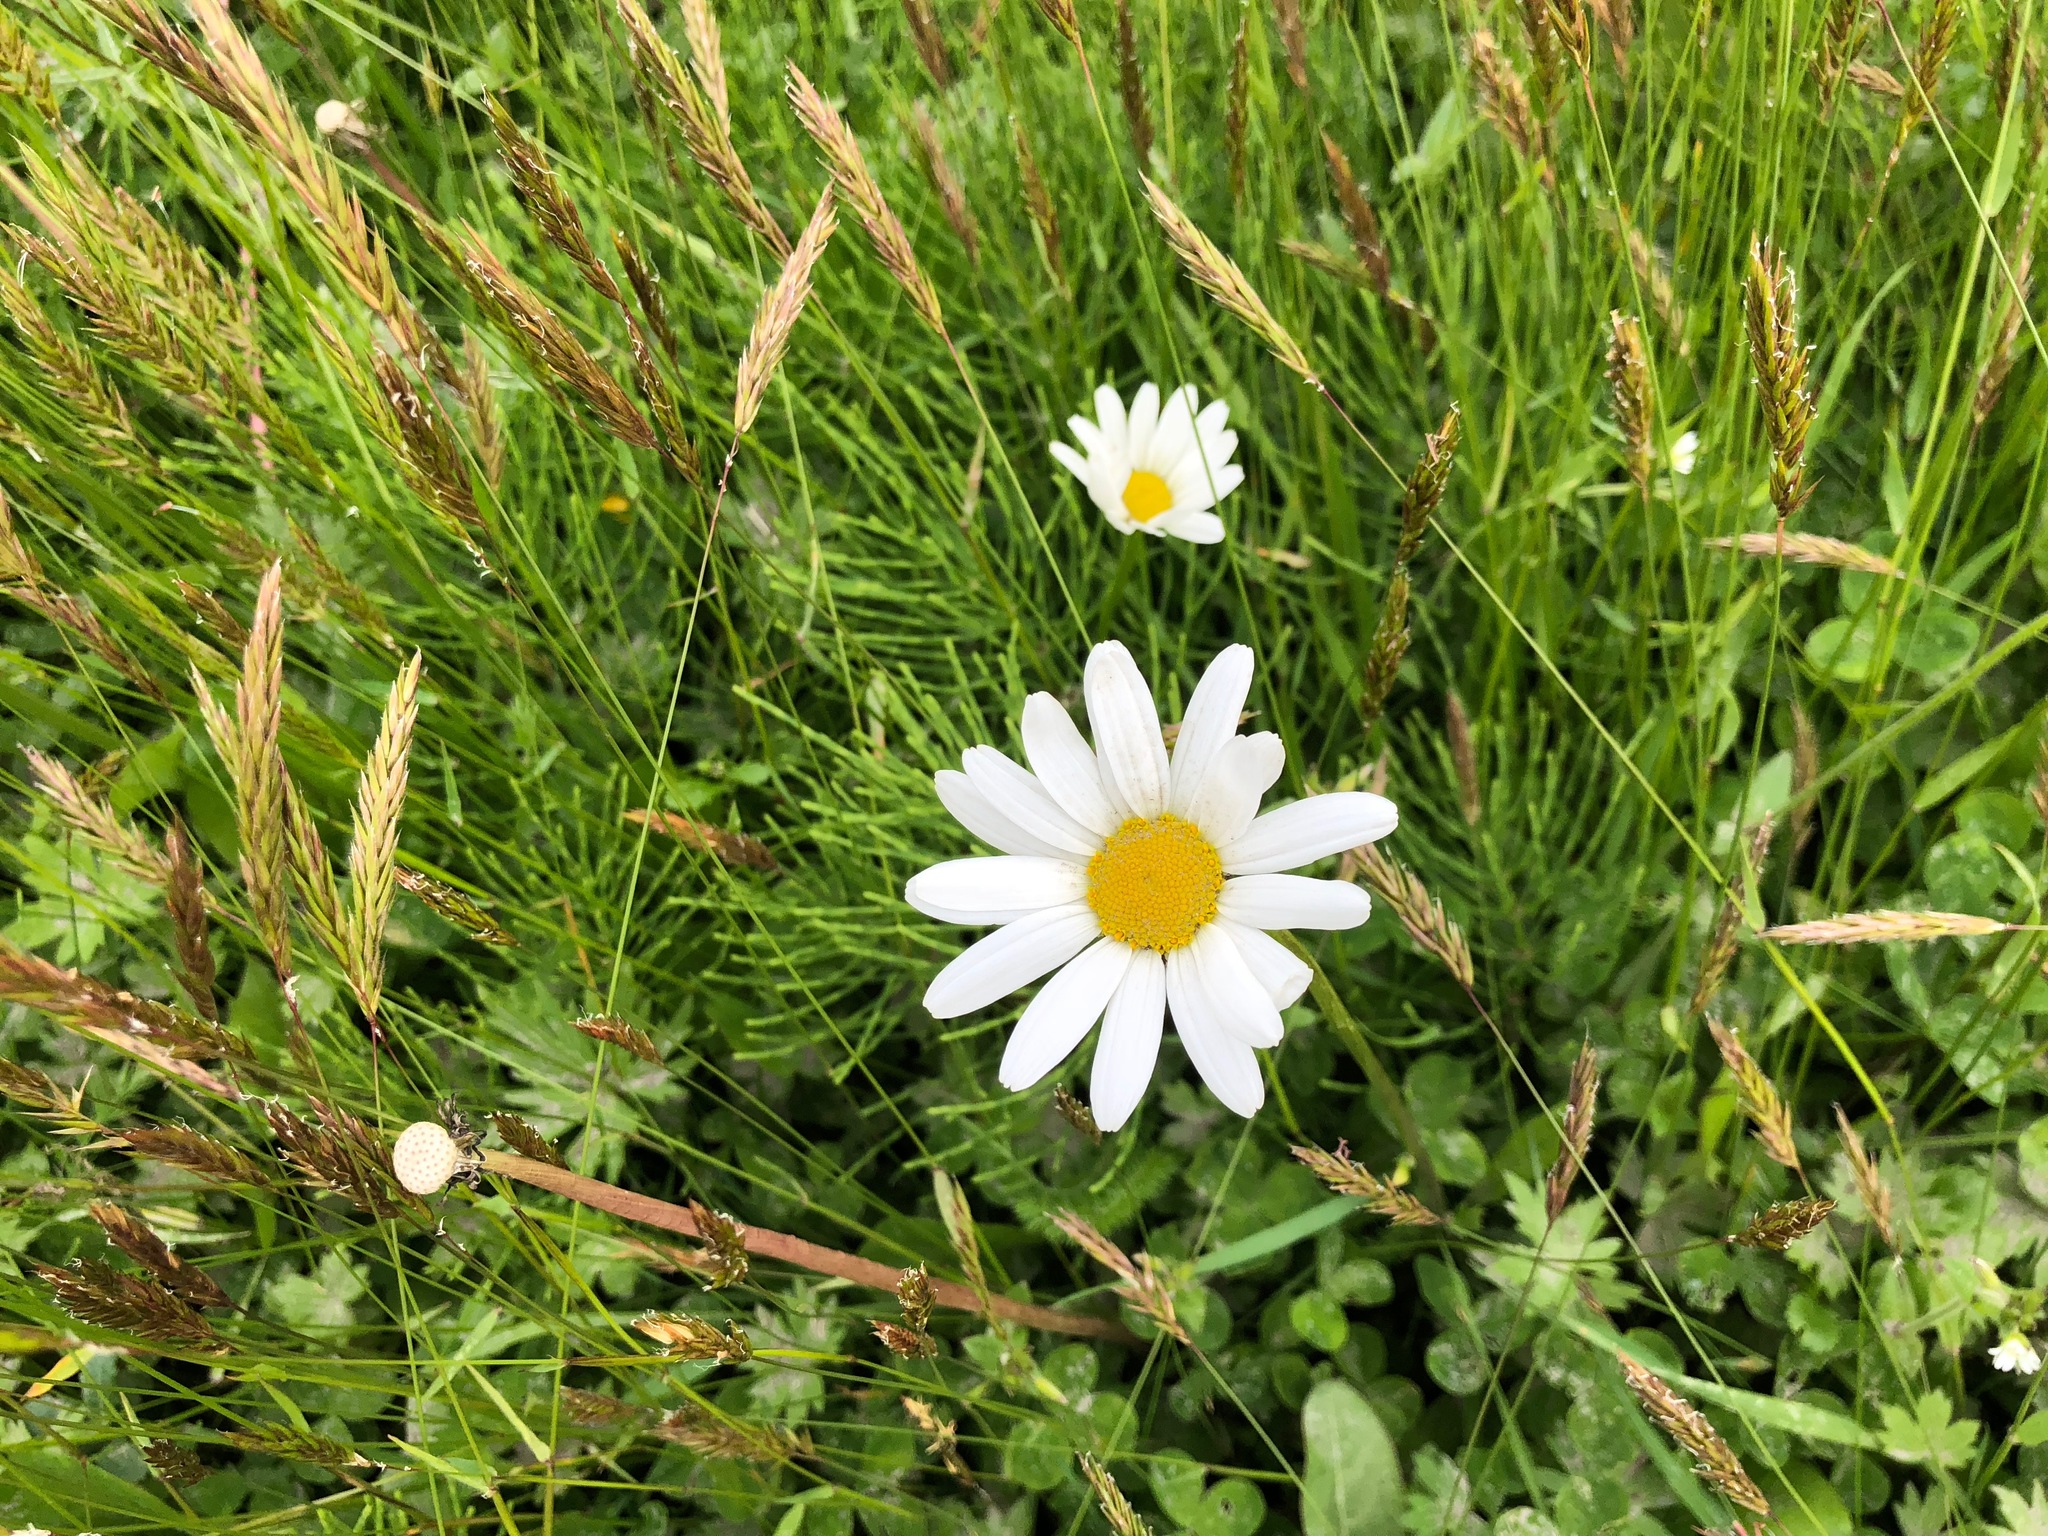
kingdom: Plantae
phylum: Tracheophyta
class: Magnoliopsida
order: Asterales
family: Asteraceae
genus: Leucanthemum
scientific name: Leucanthemum vulgare
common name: Oxeye daisy
